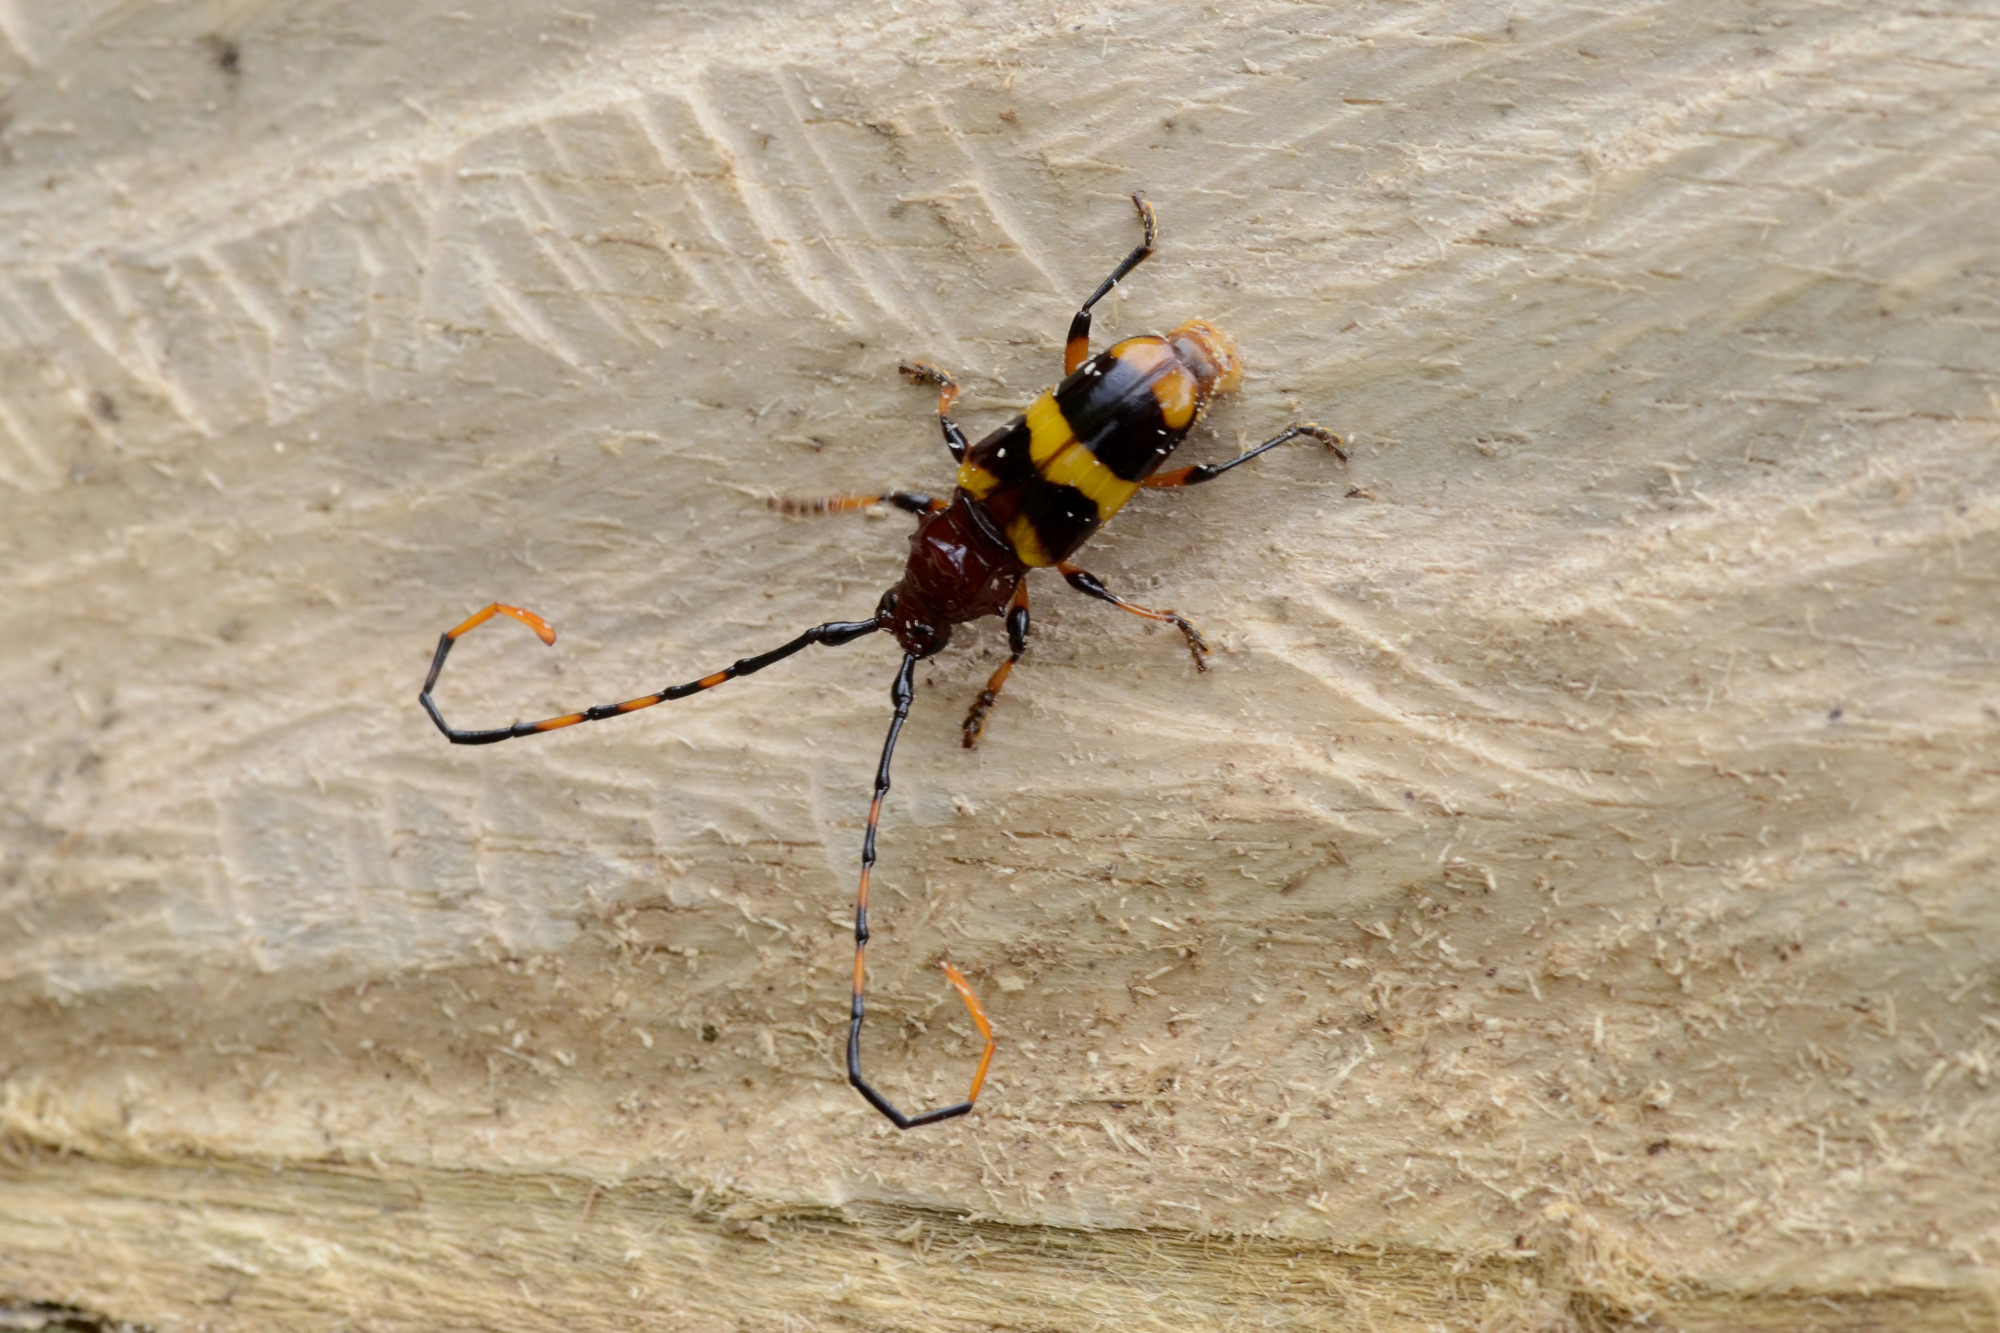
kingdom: Animalia
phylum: Arthropoda
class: Insecta
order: Coleoptera
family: Cerambycidae
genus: Trachyderes
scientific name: Trachyderes hilaris
